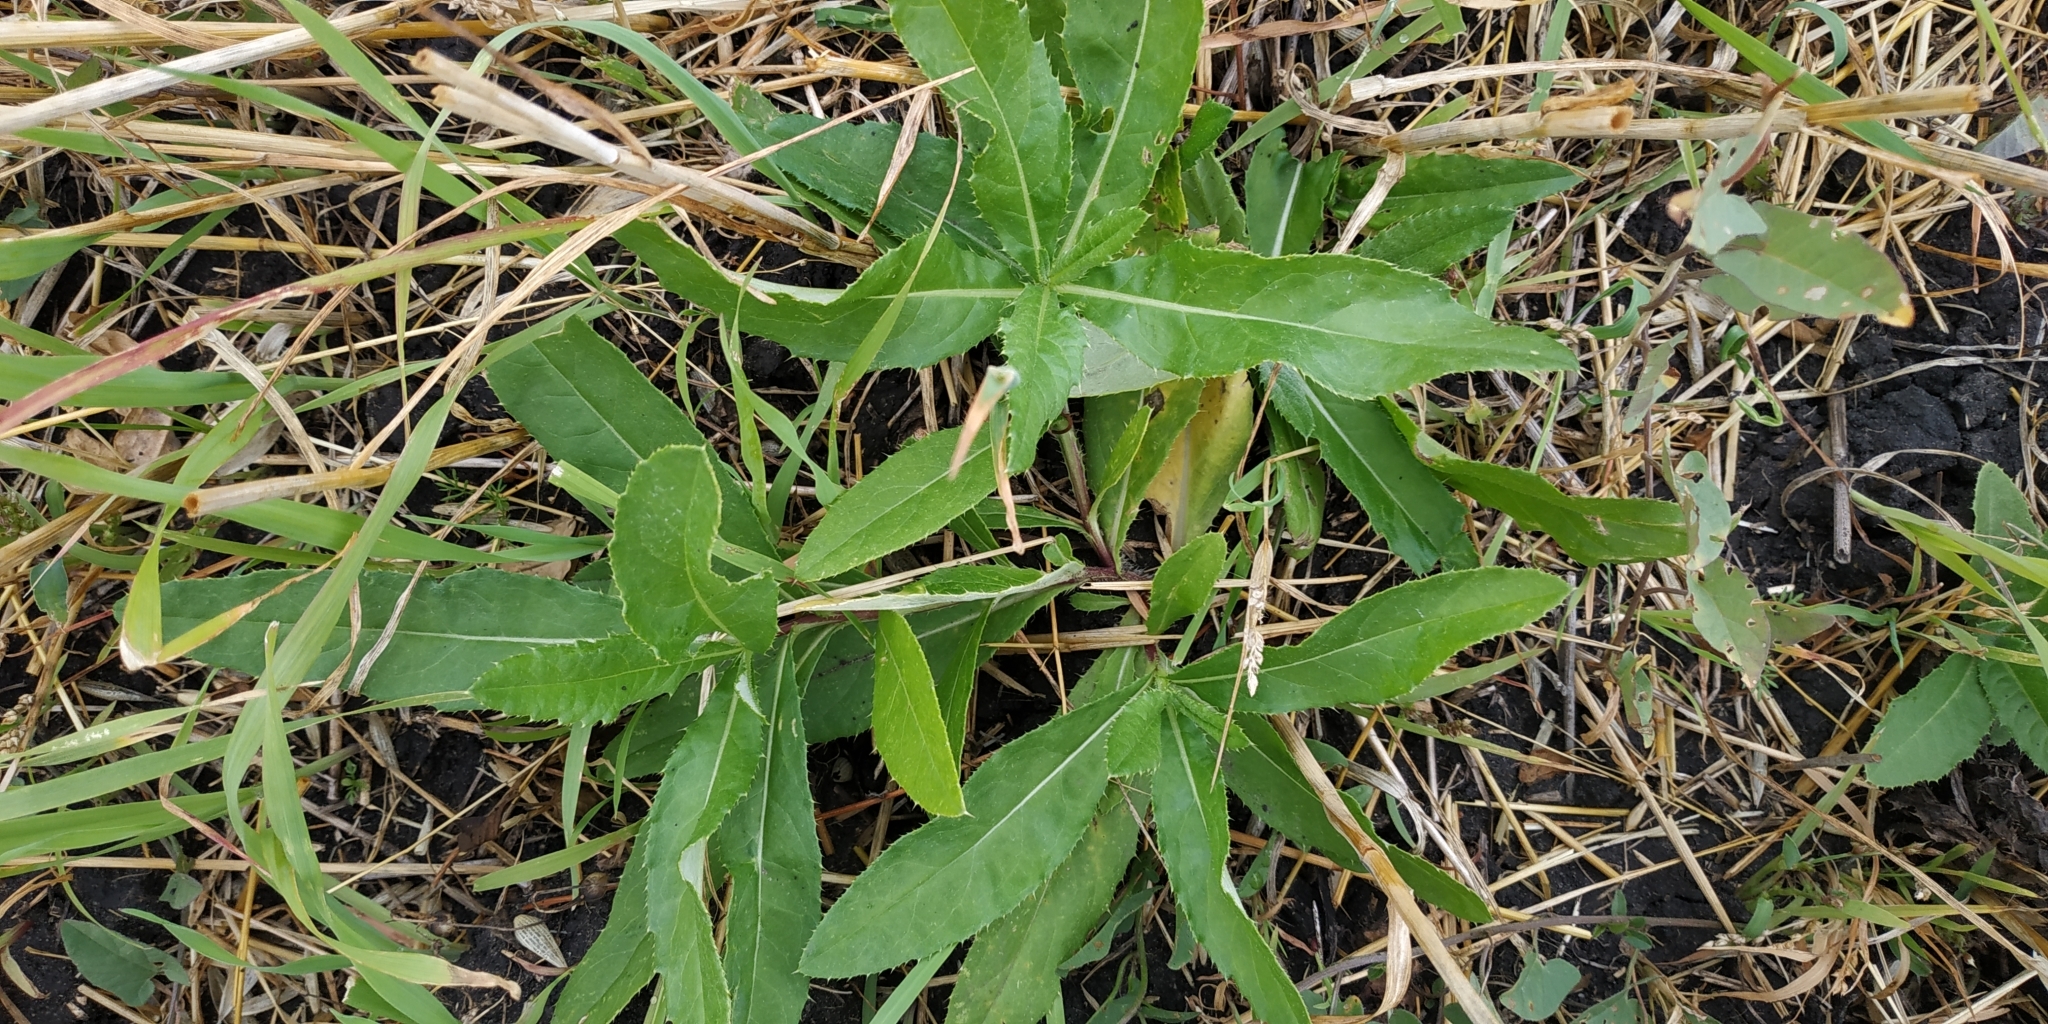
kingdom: Plantae
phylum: Tracheophyta
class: Magnoliopsida
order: Asterales
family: Asteraceae
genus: Cirsium
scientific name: Cirsium arvense
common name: Creeping thistle
